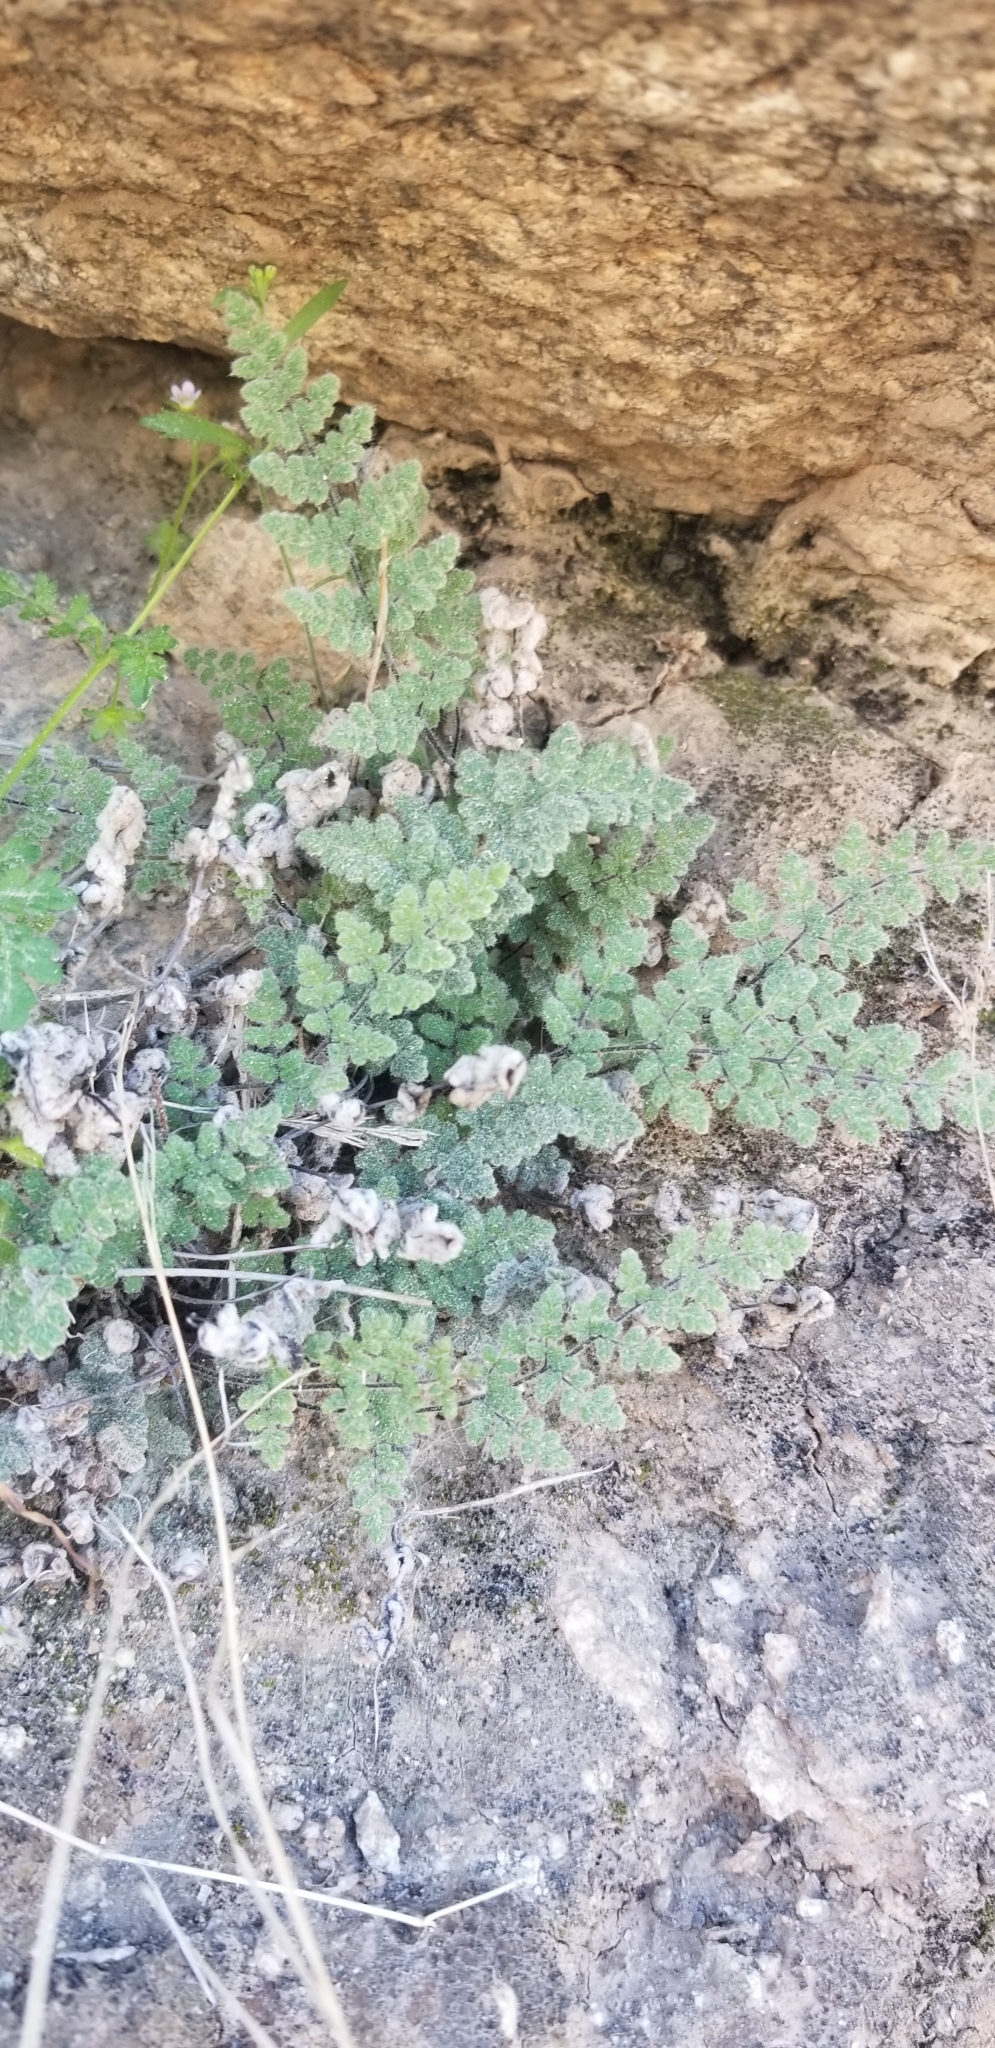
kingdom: Plantae
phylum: Tracheophyta
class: Polypodiopsida
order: Polypodiales
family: Pteridaceae
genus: Myriopteris
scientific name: Myriopteris parryi
